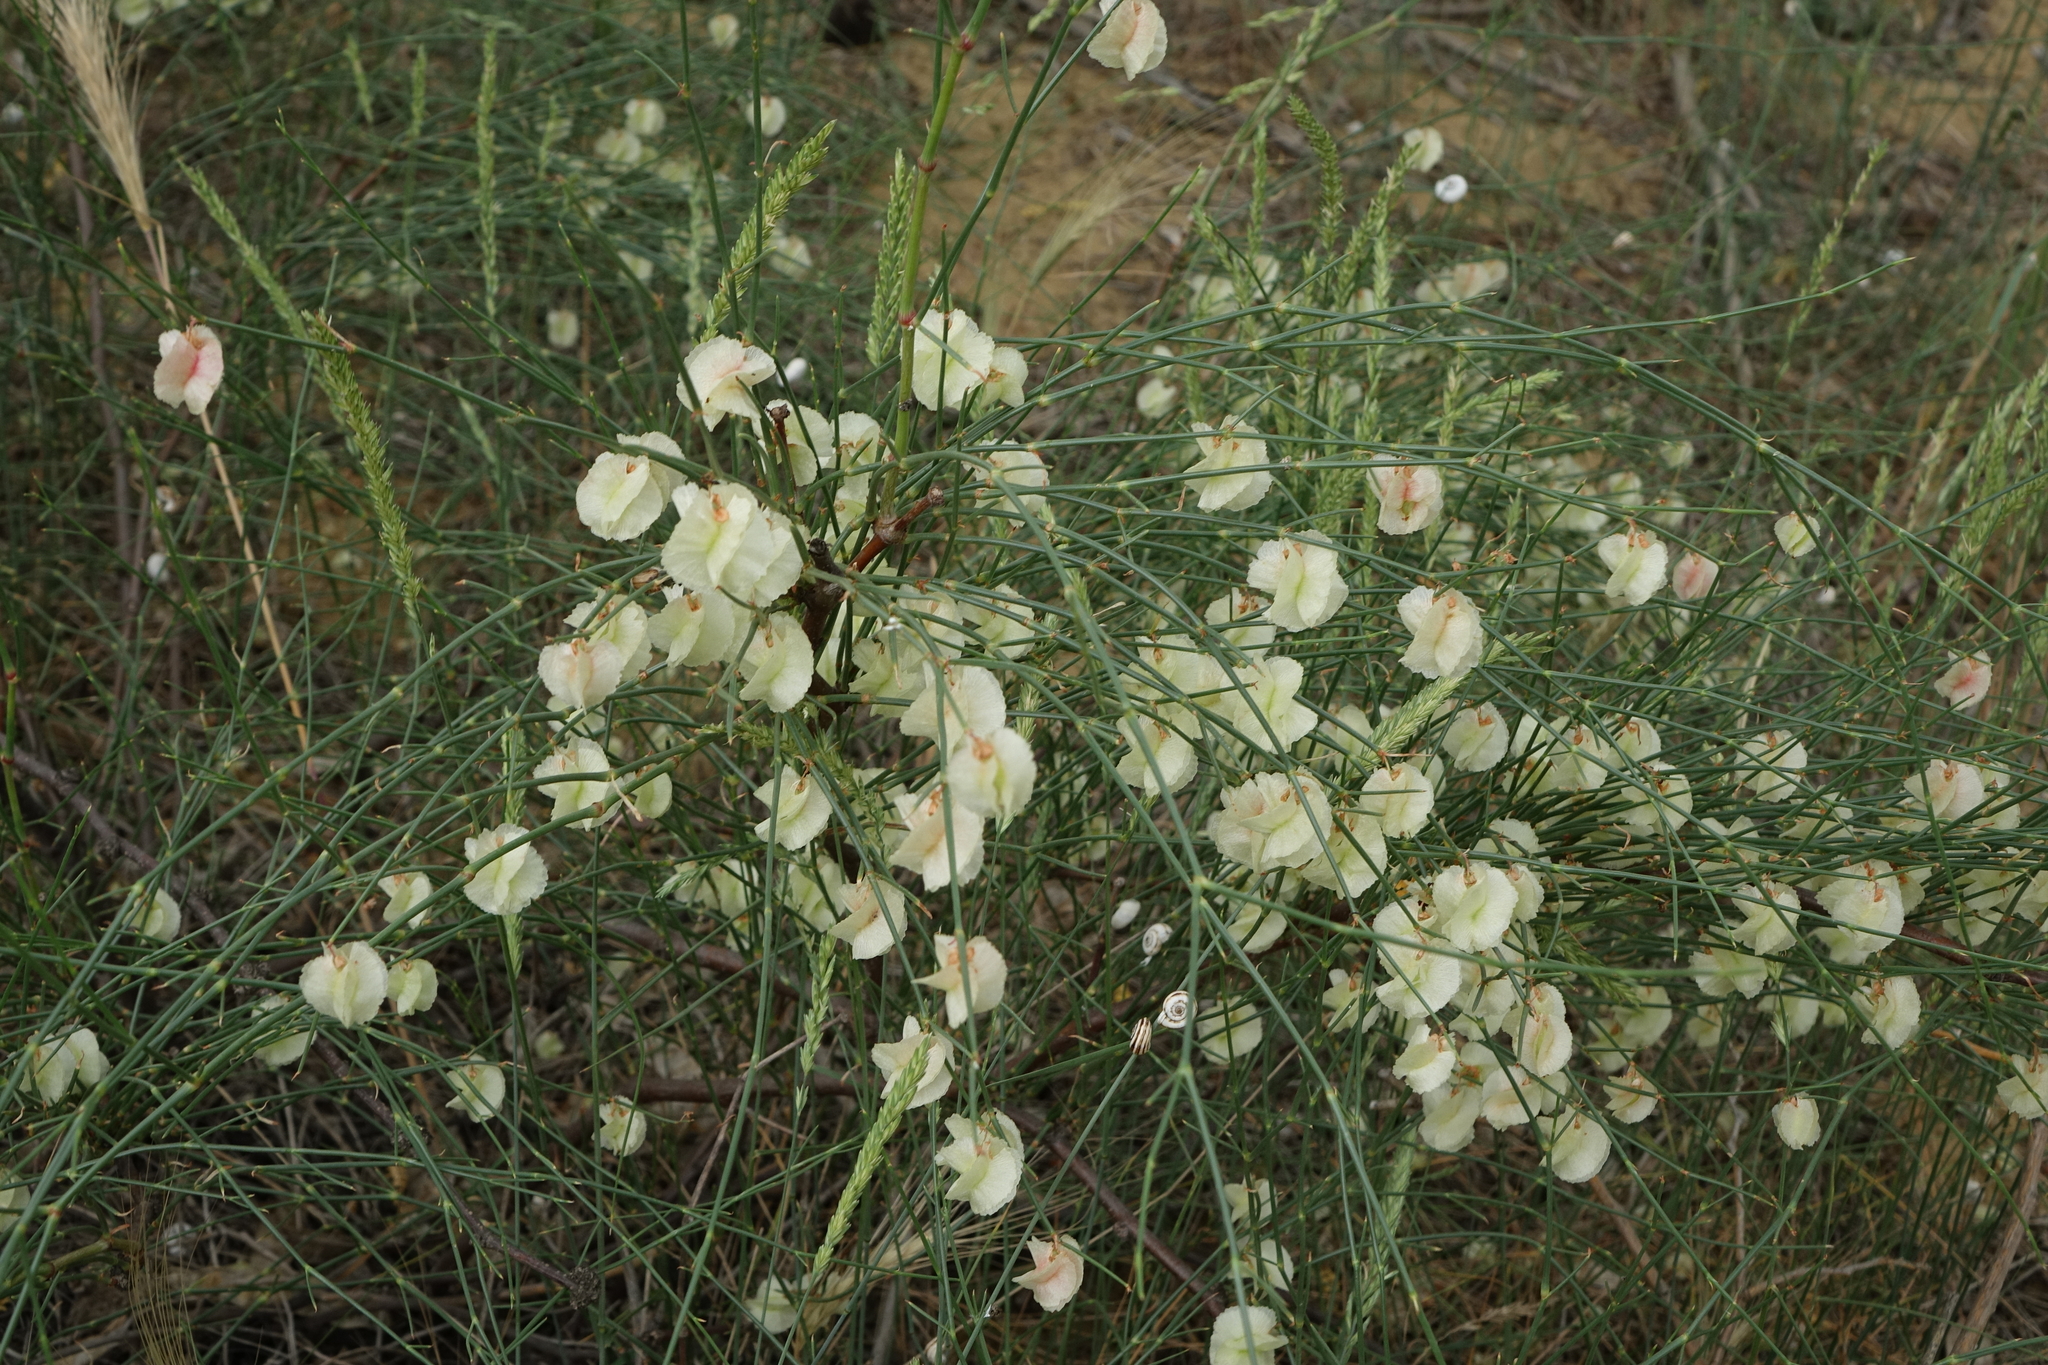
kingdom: Plantae
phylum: Tracheophyta
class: Magnoliopsida
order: Caryophyllales
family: Polygonaceae
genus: Calligonum
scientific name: Calligonum aphyllum
